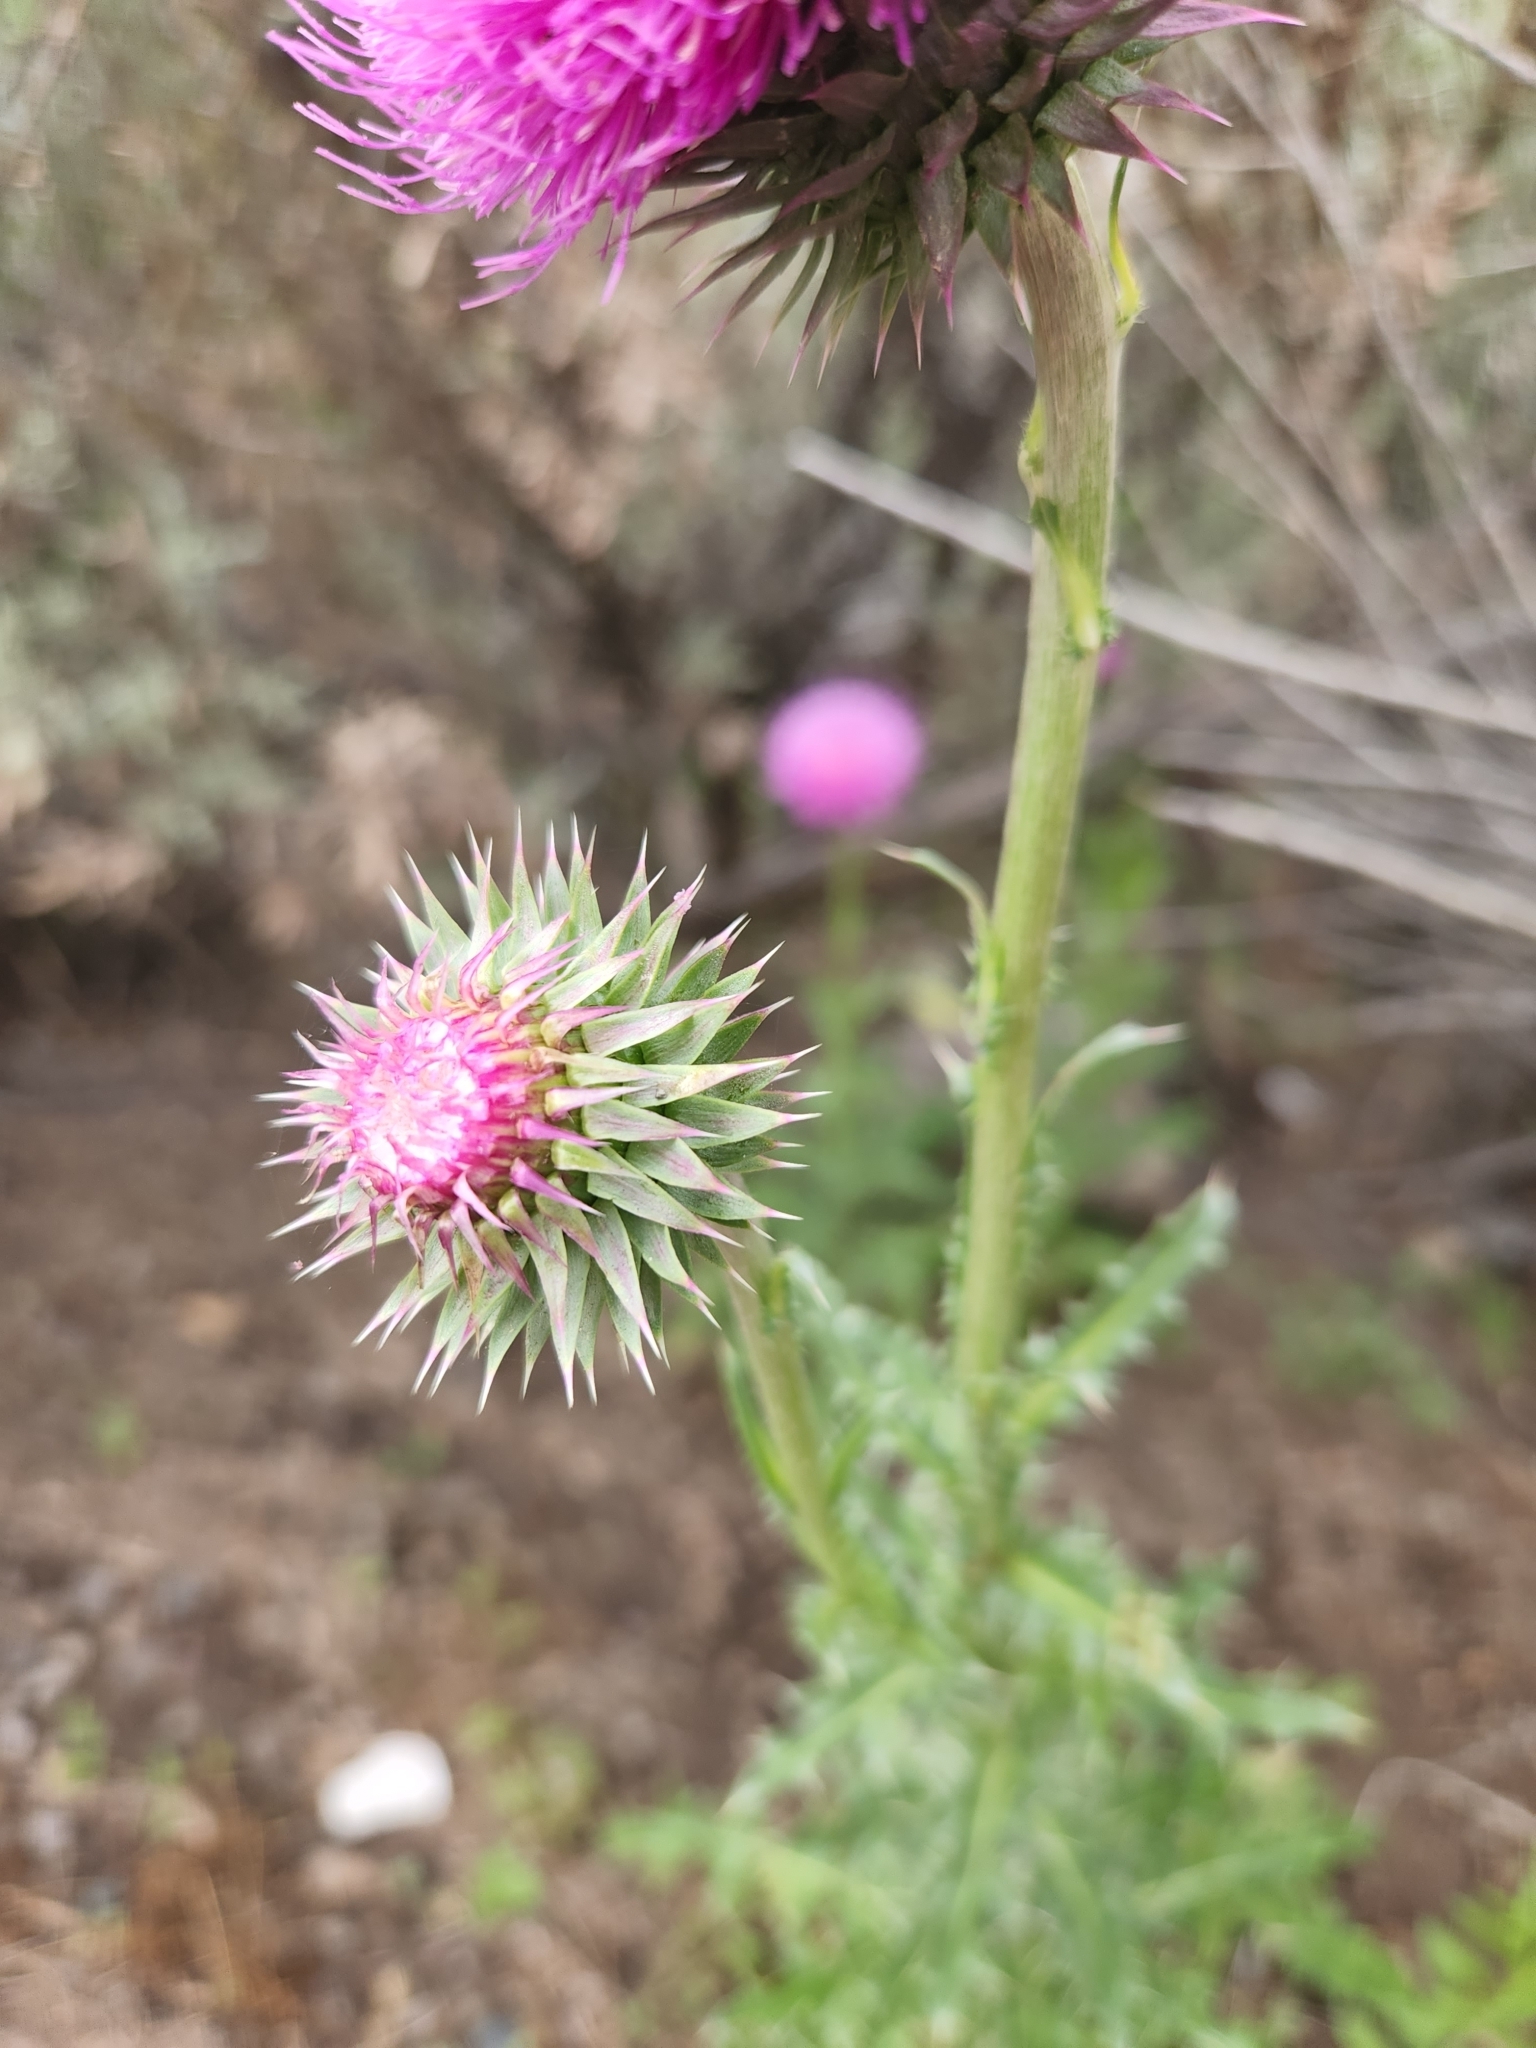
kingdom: Plantae
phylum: Tracheophyta
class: Magnoliopsida
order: Asterales
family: Asteraceae
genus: Carduus
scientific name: Carduus nutans
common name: Musk thistle
